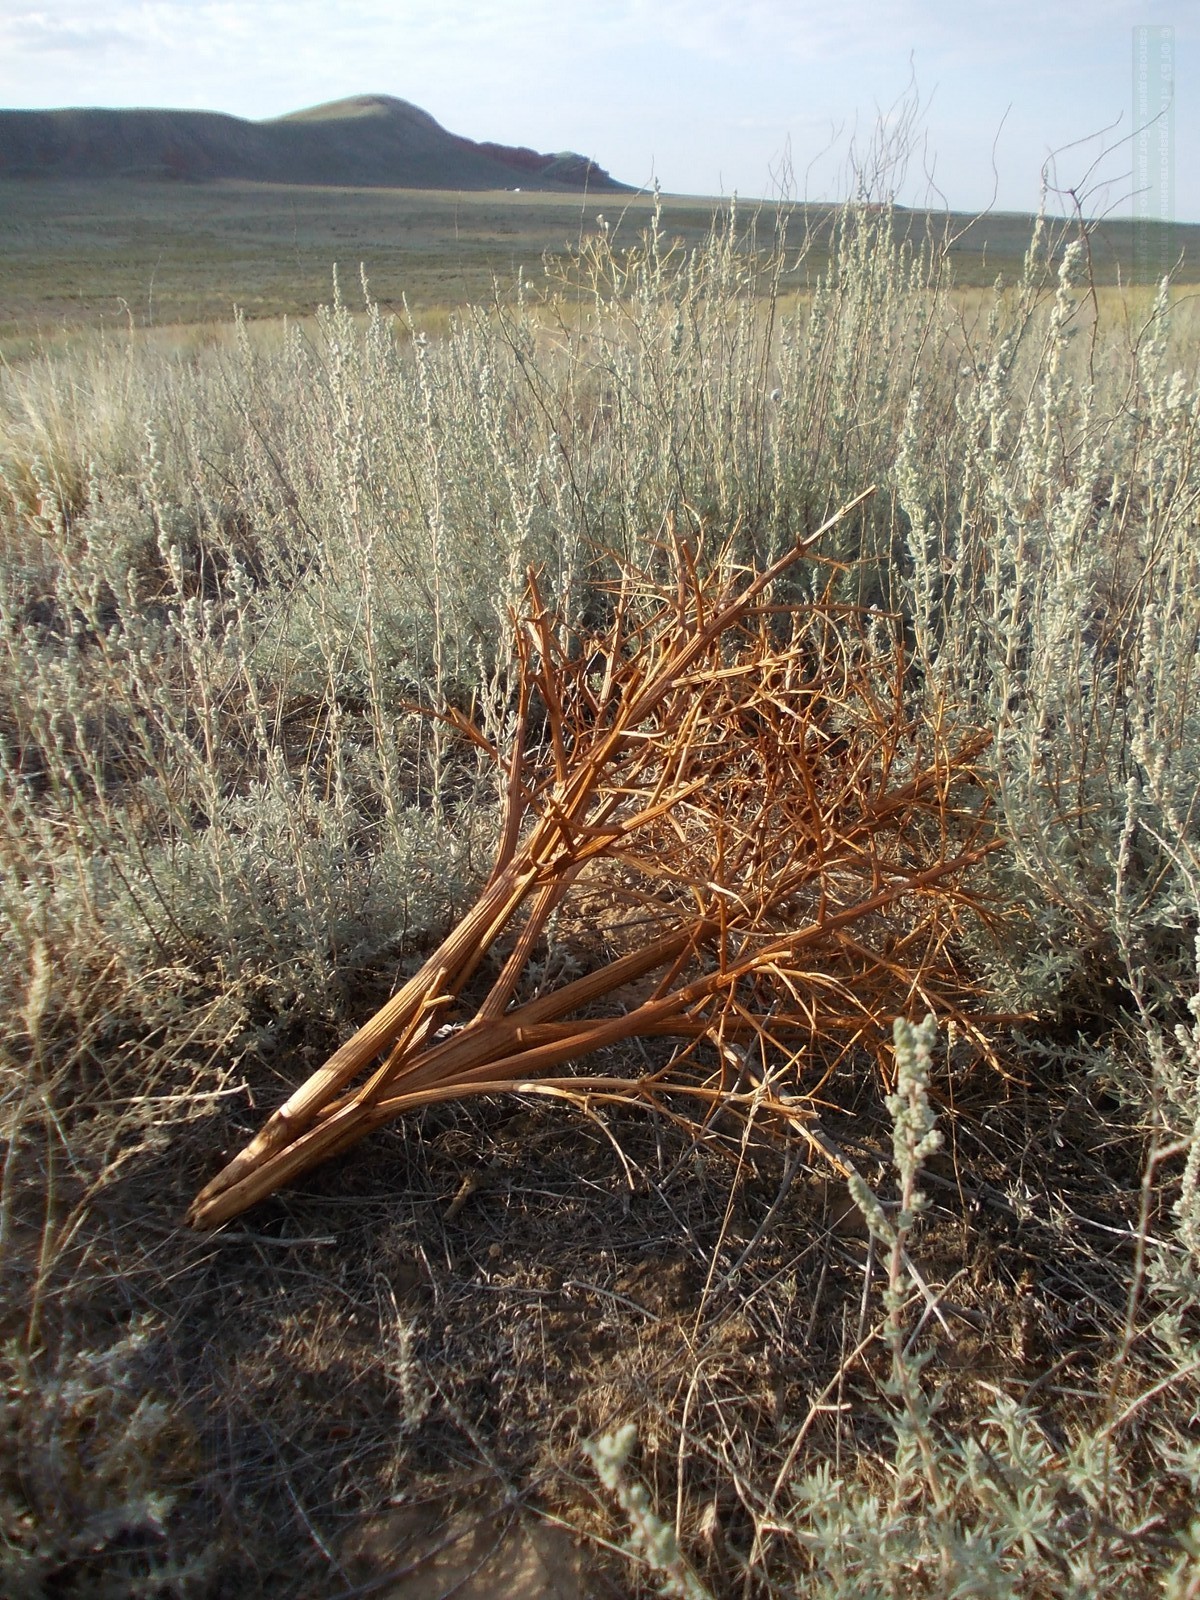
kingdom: Plantae
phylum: Tracheophyta
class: Magnoliopsida
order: Caryophyllales
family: Polygonaceae
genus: Rheum
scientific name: Rheum tataricum
